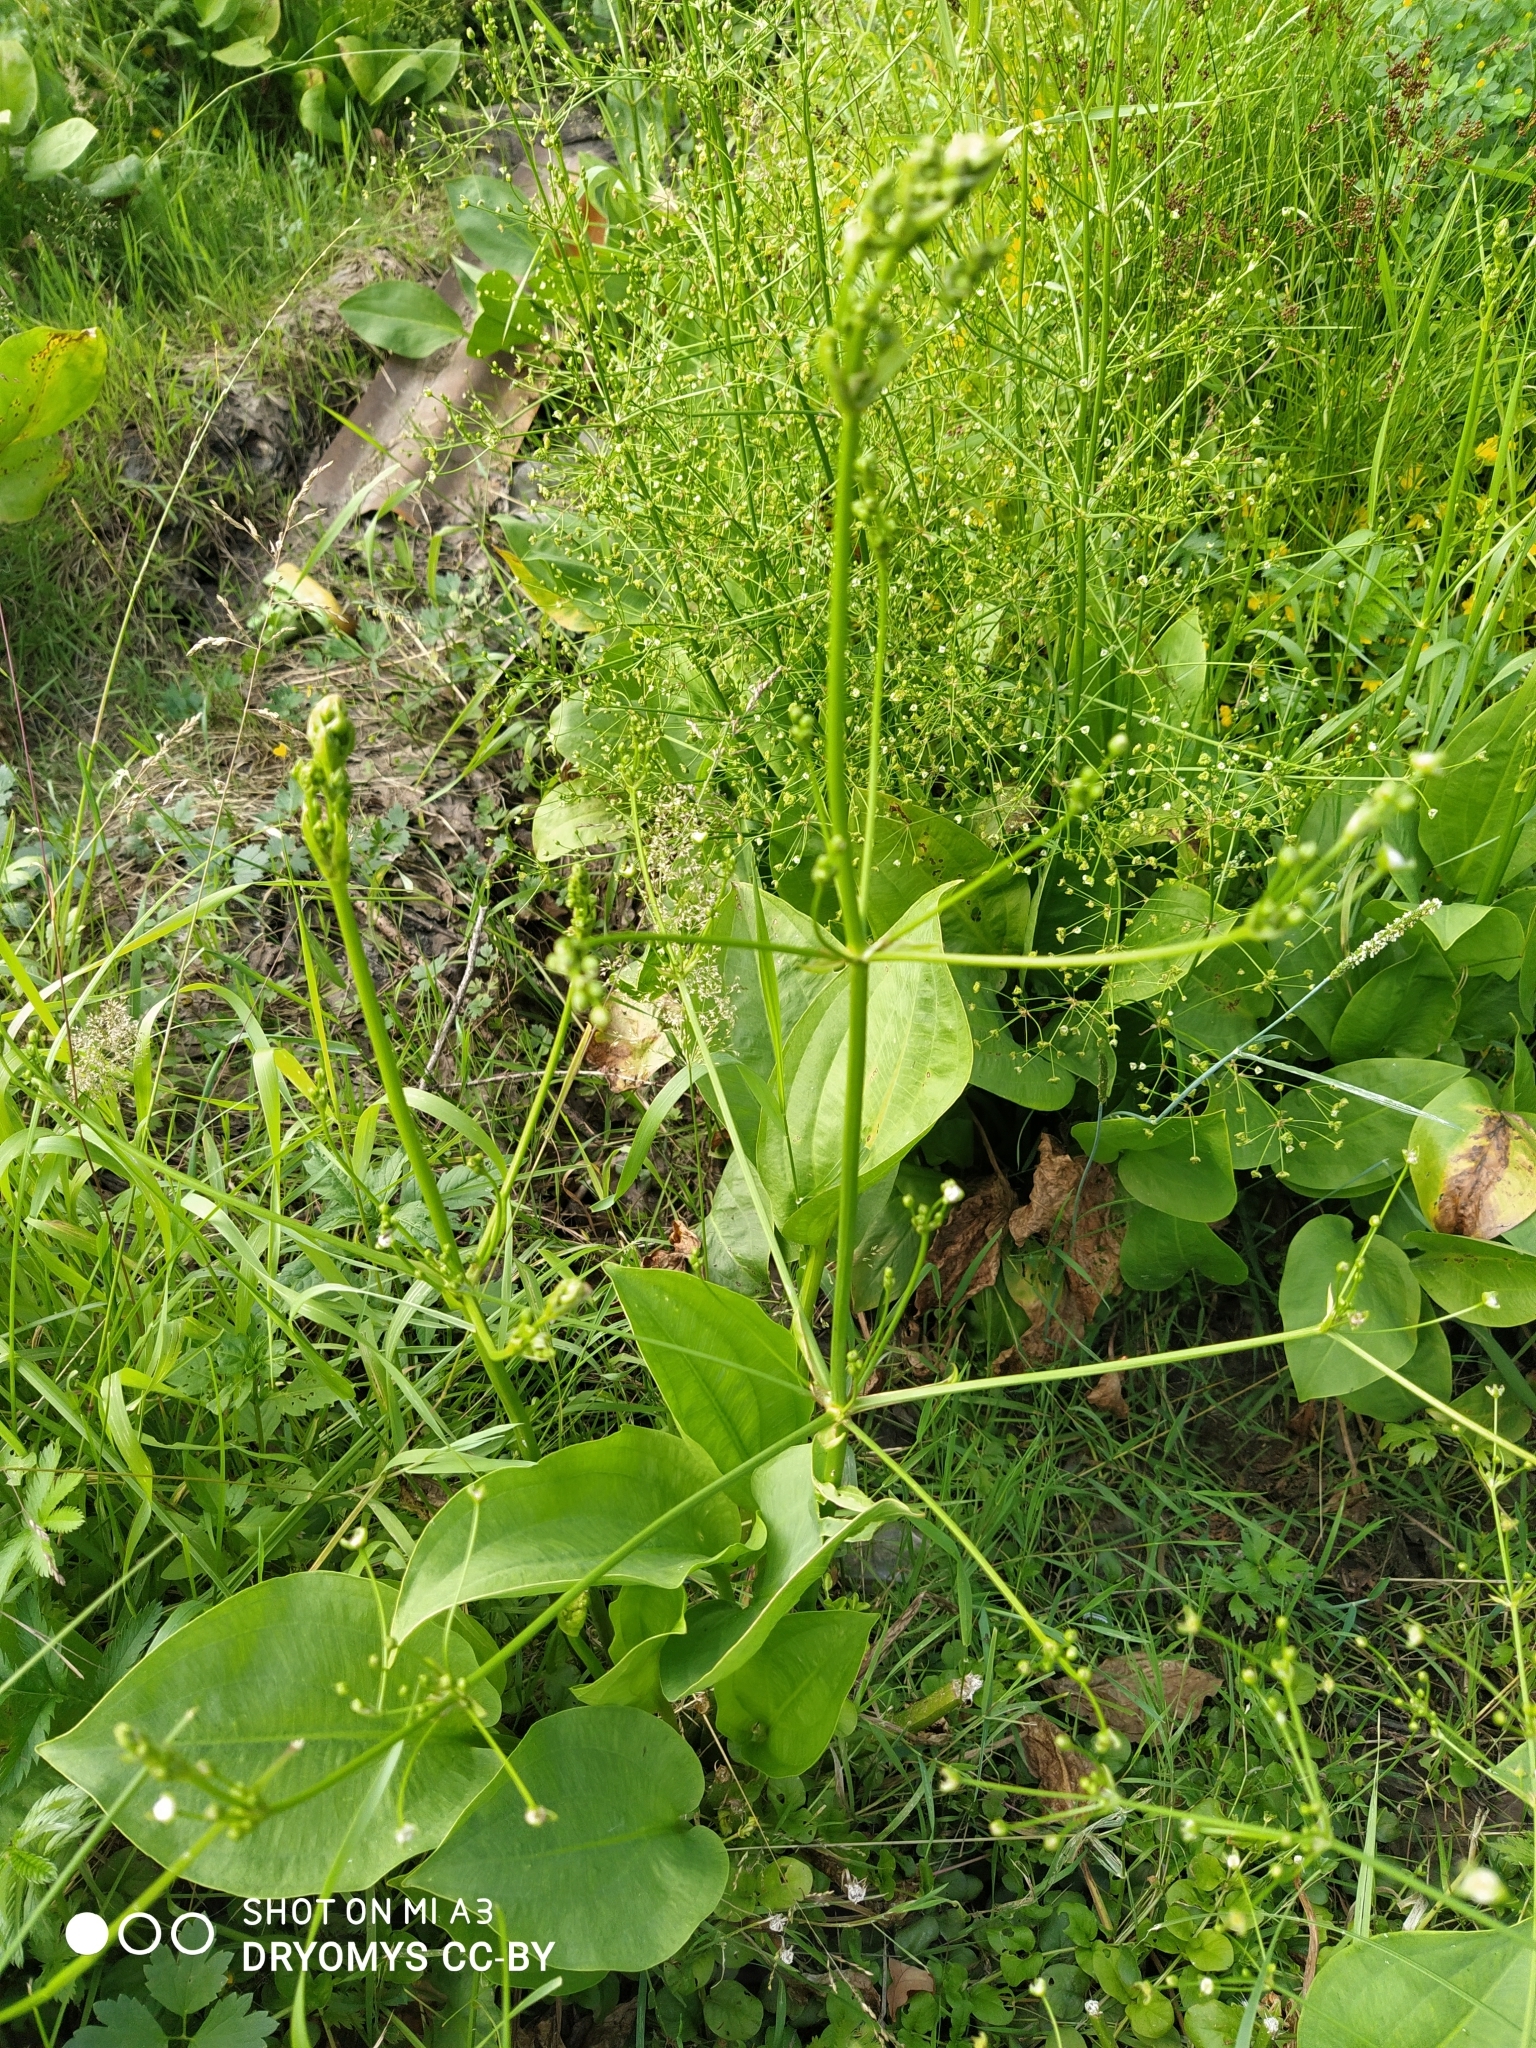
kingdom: Plantae
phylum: Tracheophyta
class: Liliopsida
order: Alismatales
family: Alismataceae
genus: Alisma
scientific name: Alisma plantago-aquatica
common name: Water-plantain
